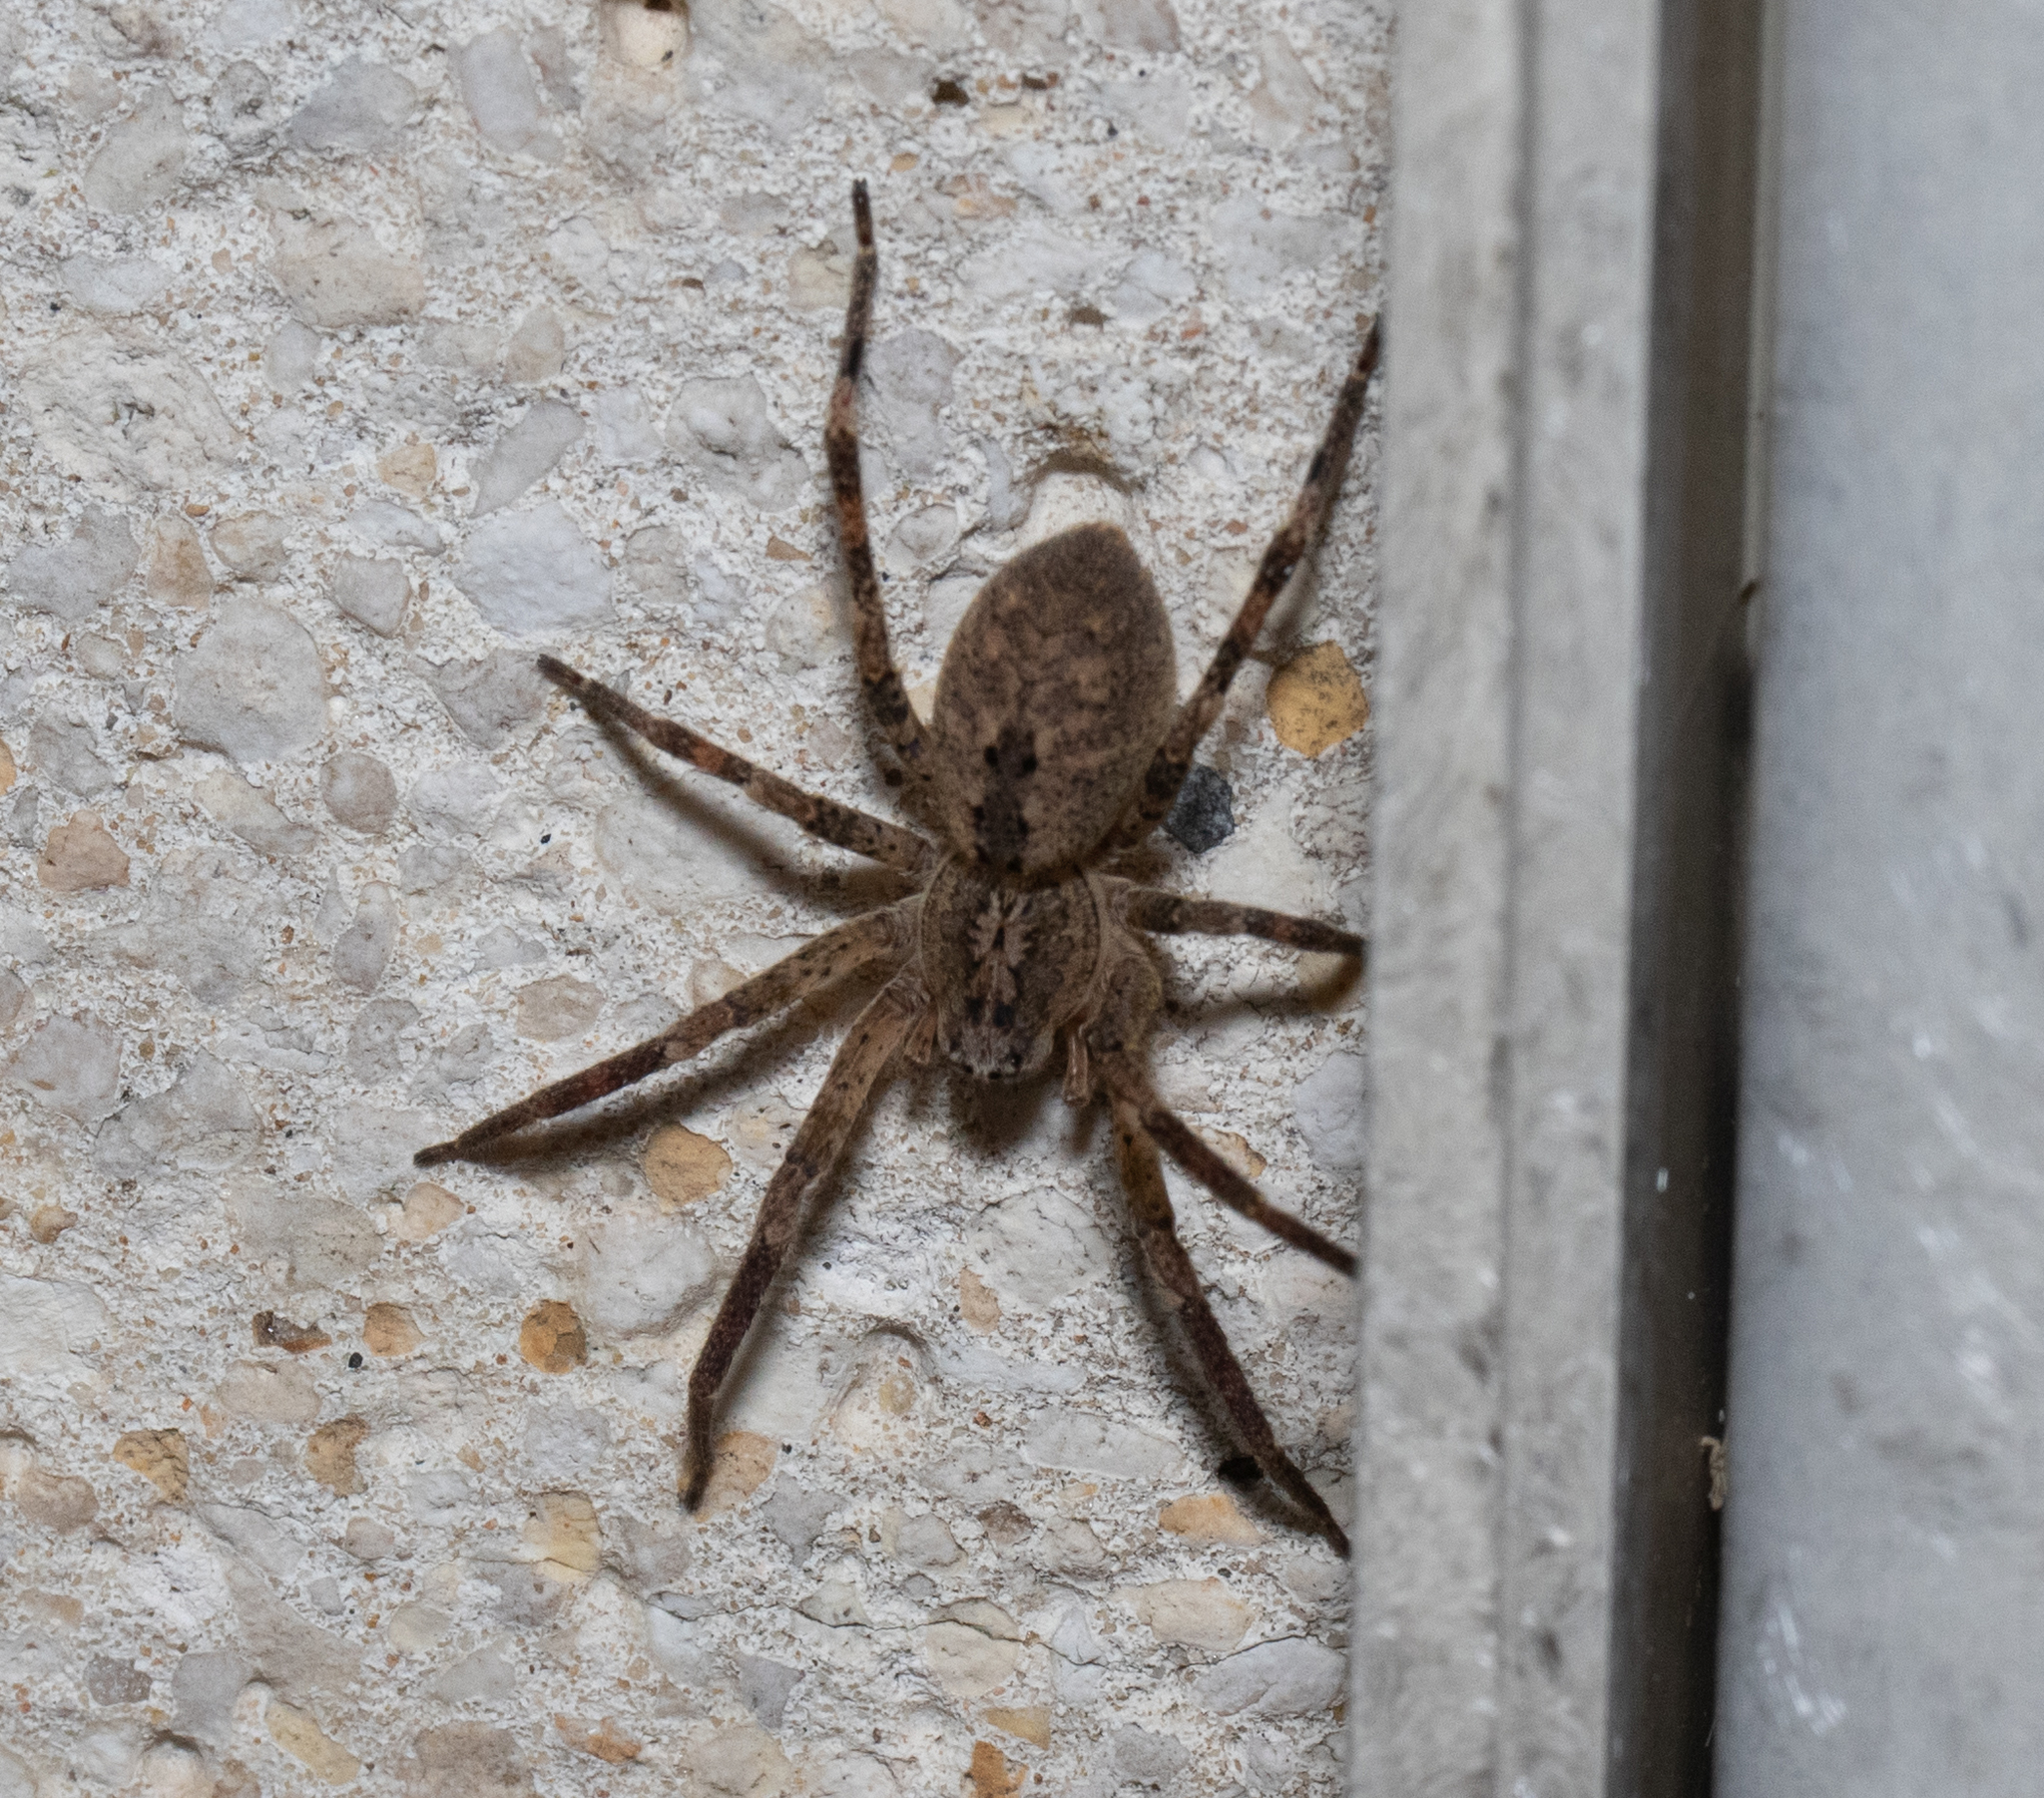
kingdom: Animalia
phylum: Arthropoda
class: Arachnida
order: Araneae
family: Zoropsidae
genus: Zoropsis
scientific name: Zoropsis spinimana
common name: Zoropsid spider
